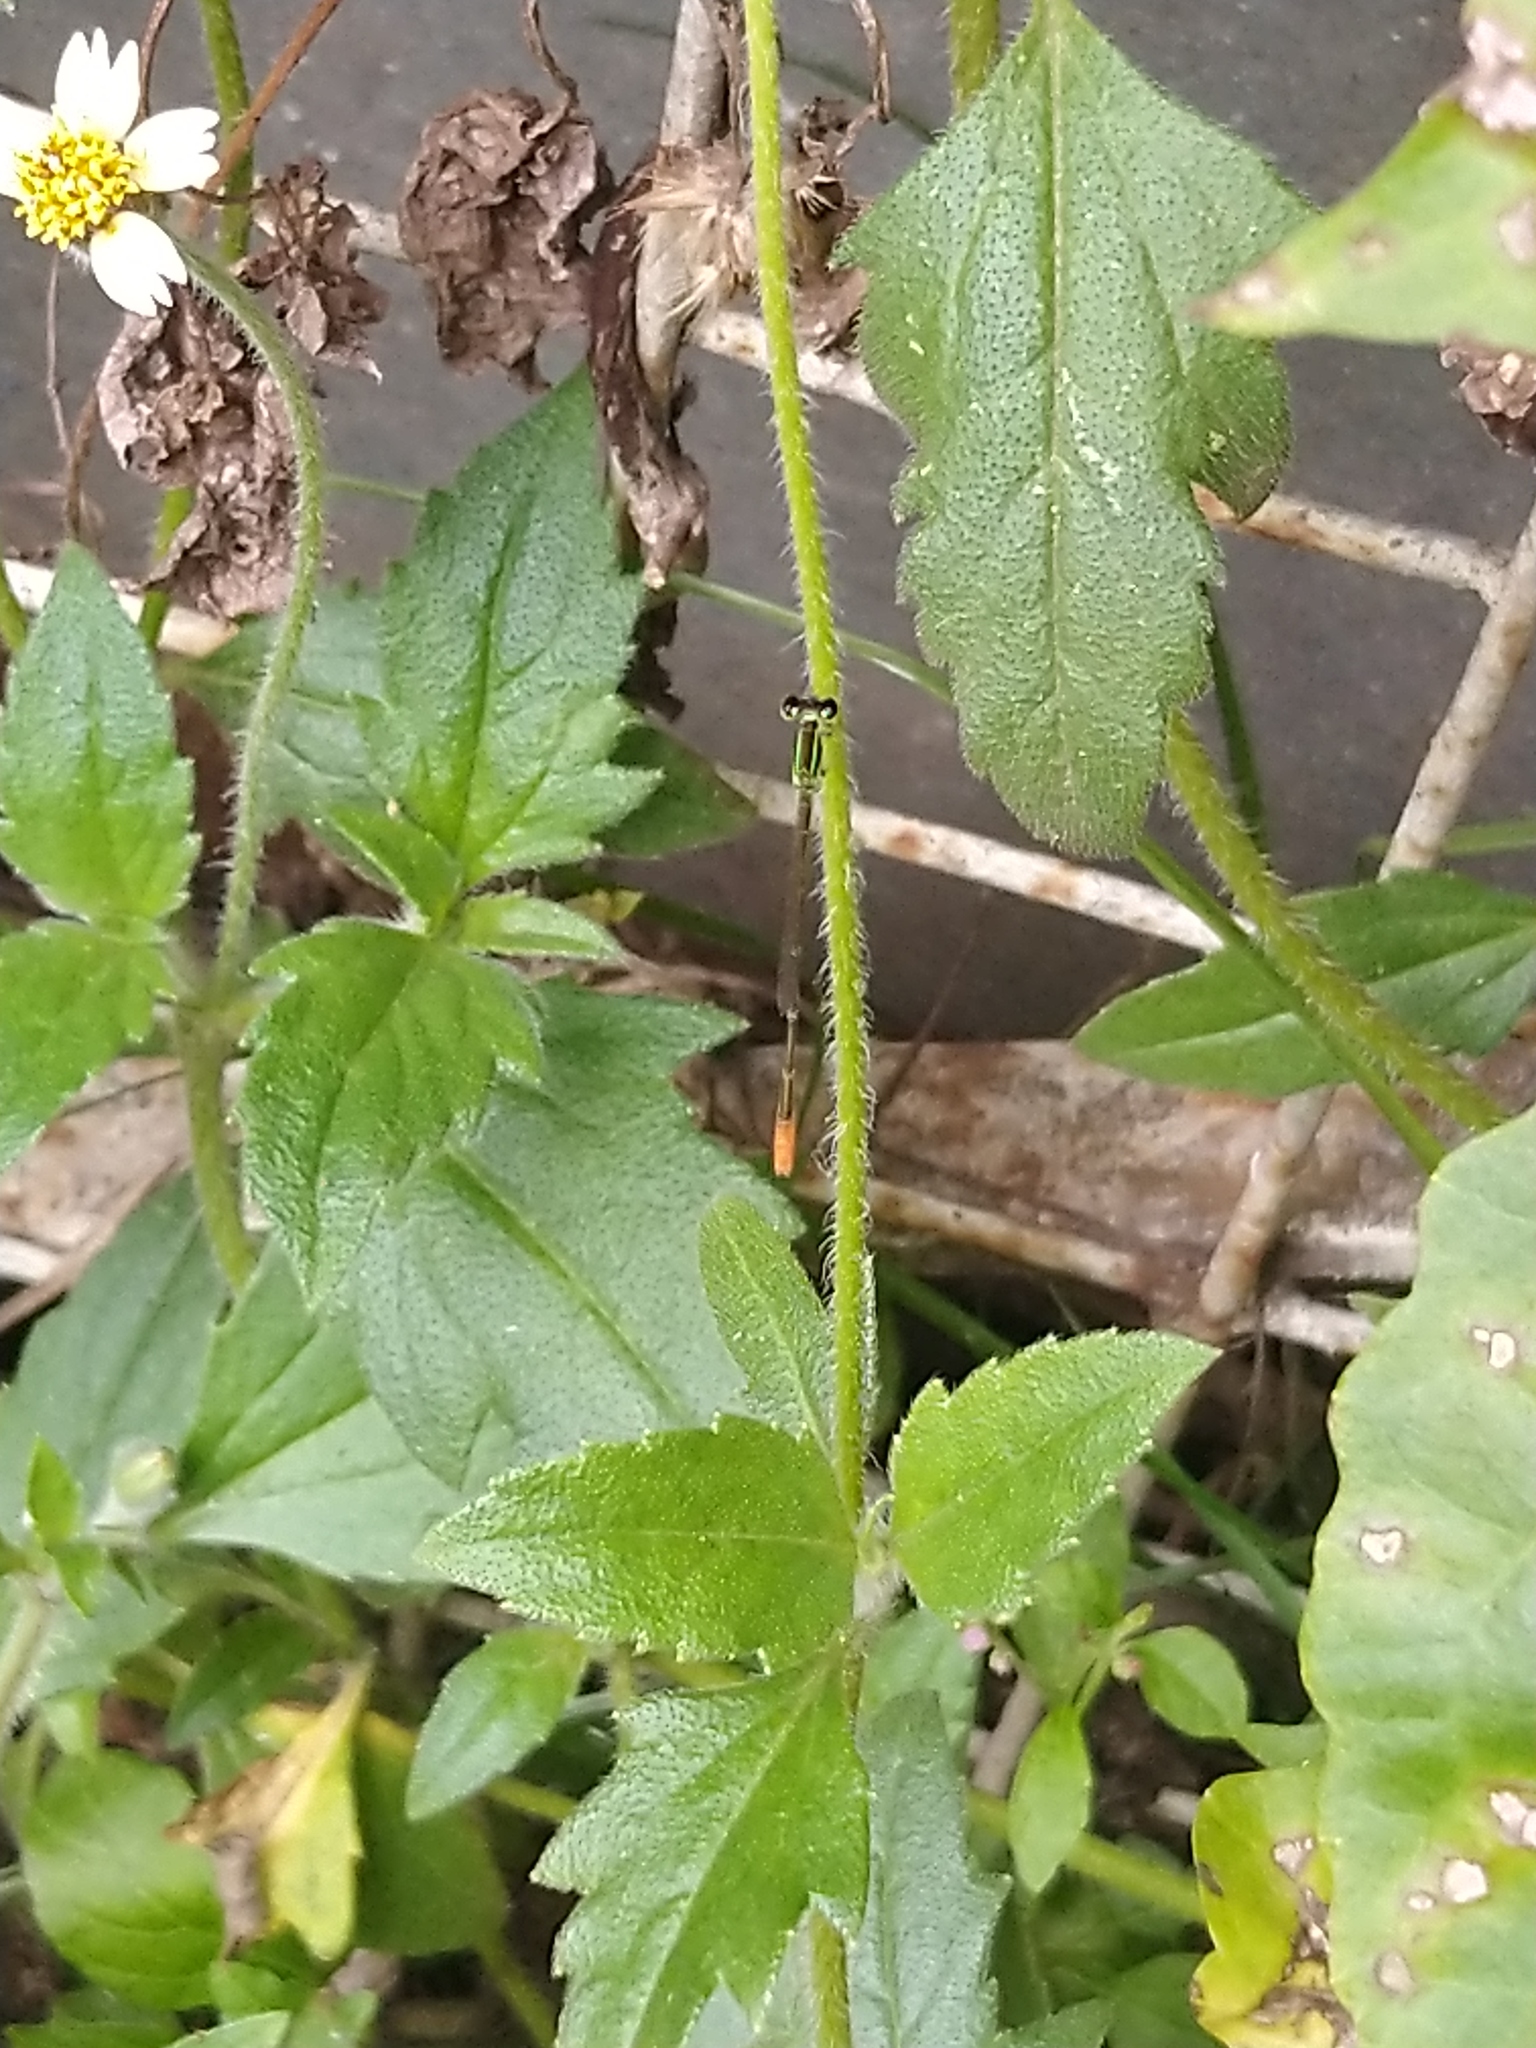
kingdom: Animalia
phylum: Arthropoda
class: Insecta
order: Odonata
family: Coenagrionidae
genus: Agriocnemis
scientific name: Agriocnemis pygmaea
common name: Pygmy wisp
